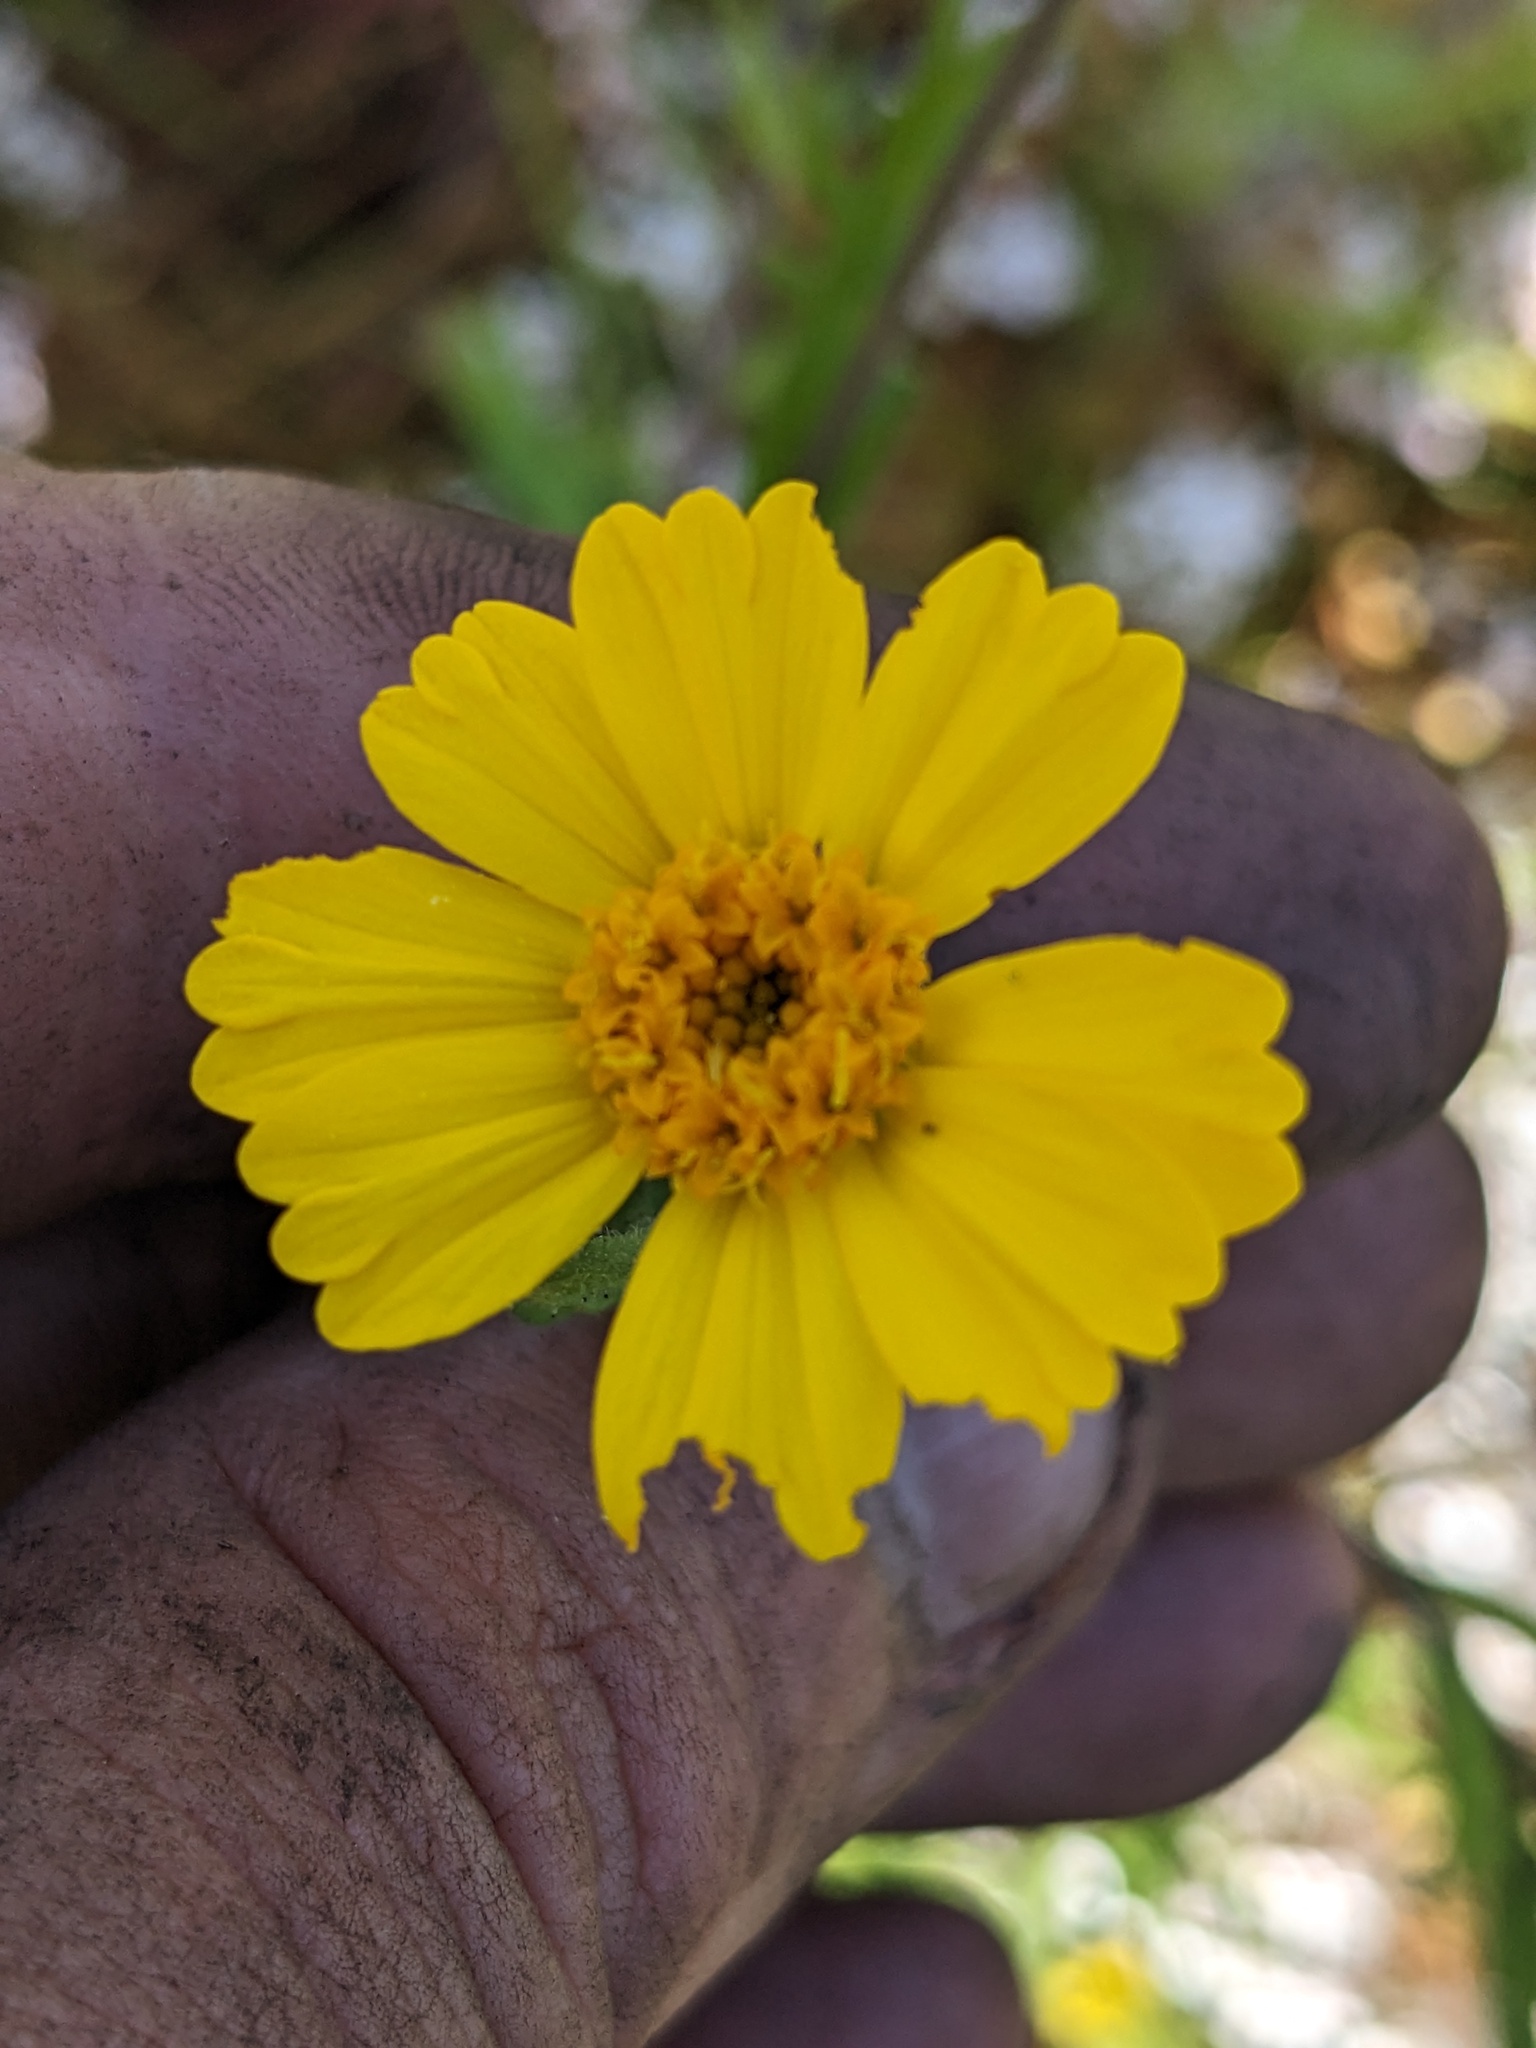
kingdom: Plantae
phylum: Tracheophyta
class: Magnoliopsida
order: Asterales
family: Asteraceae
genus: Layia
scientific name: Layia pentachaeta
